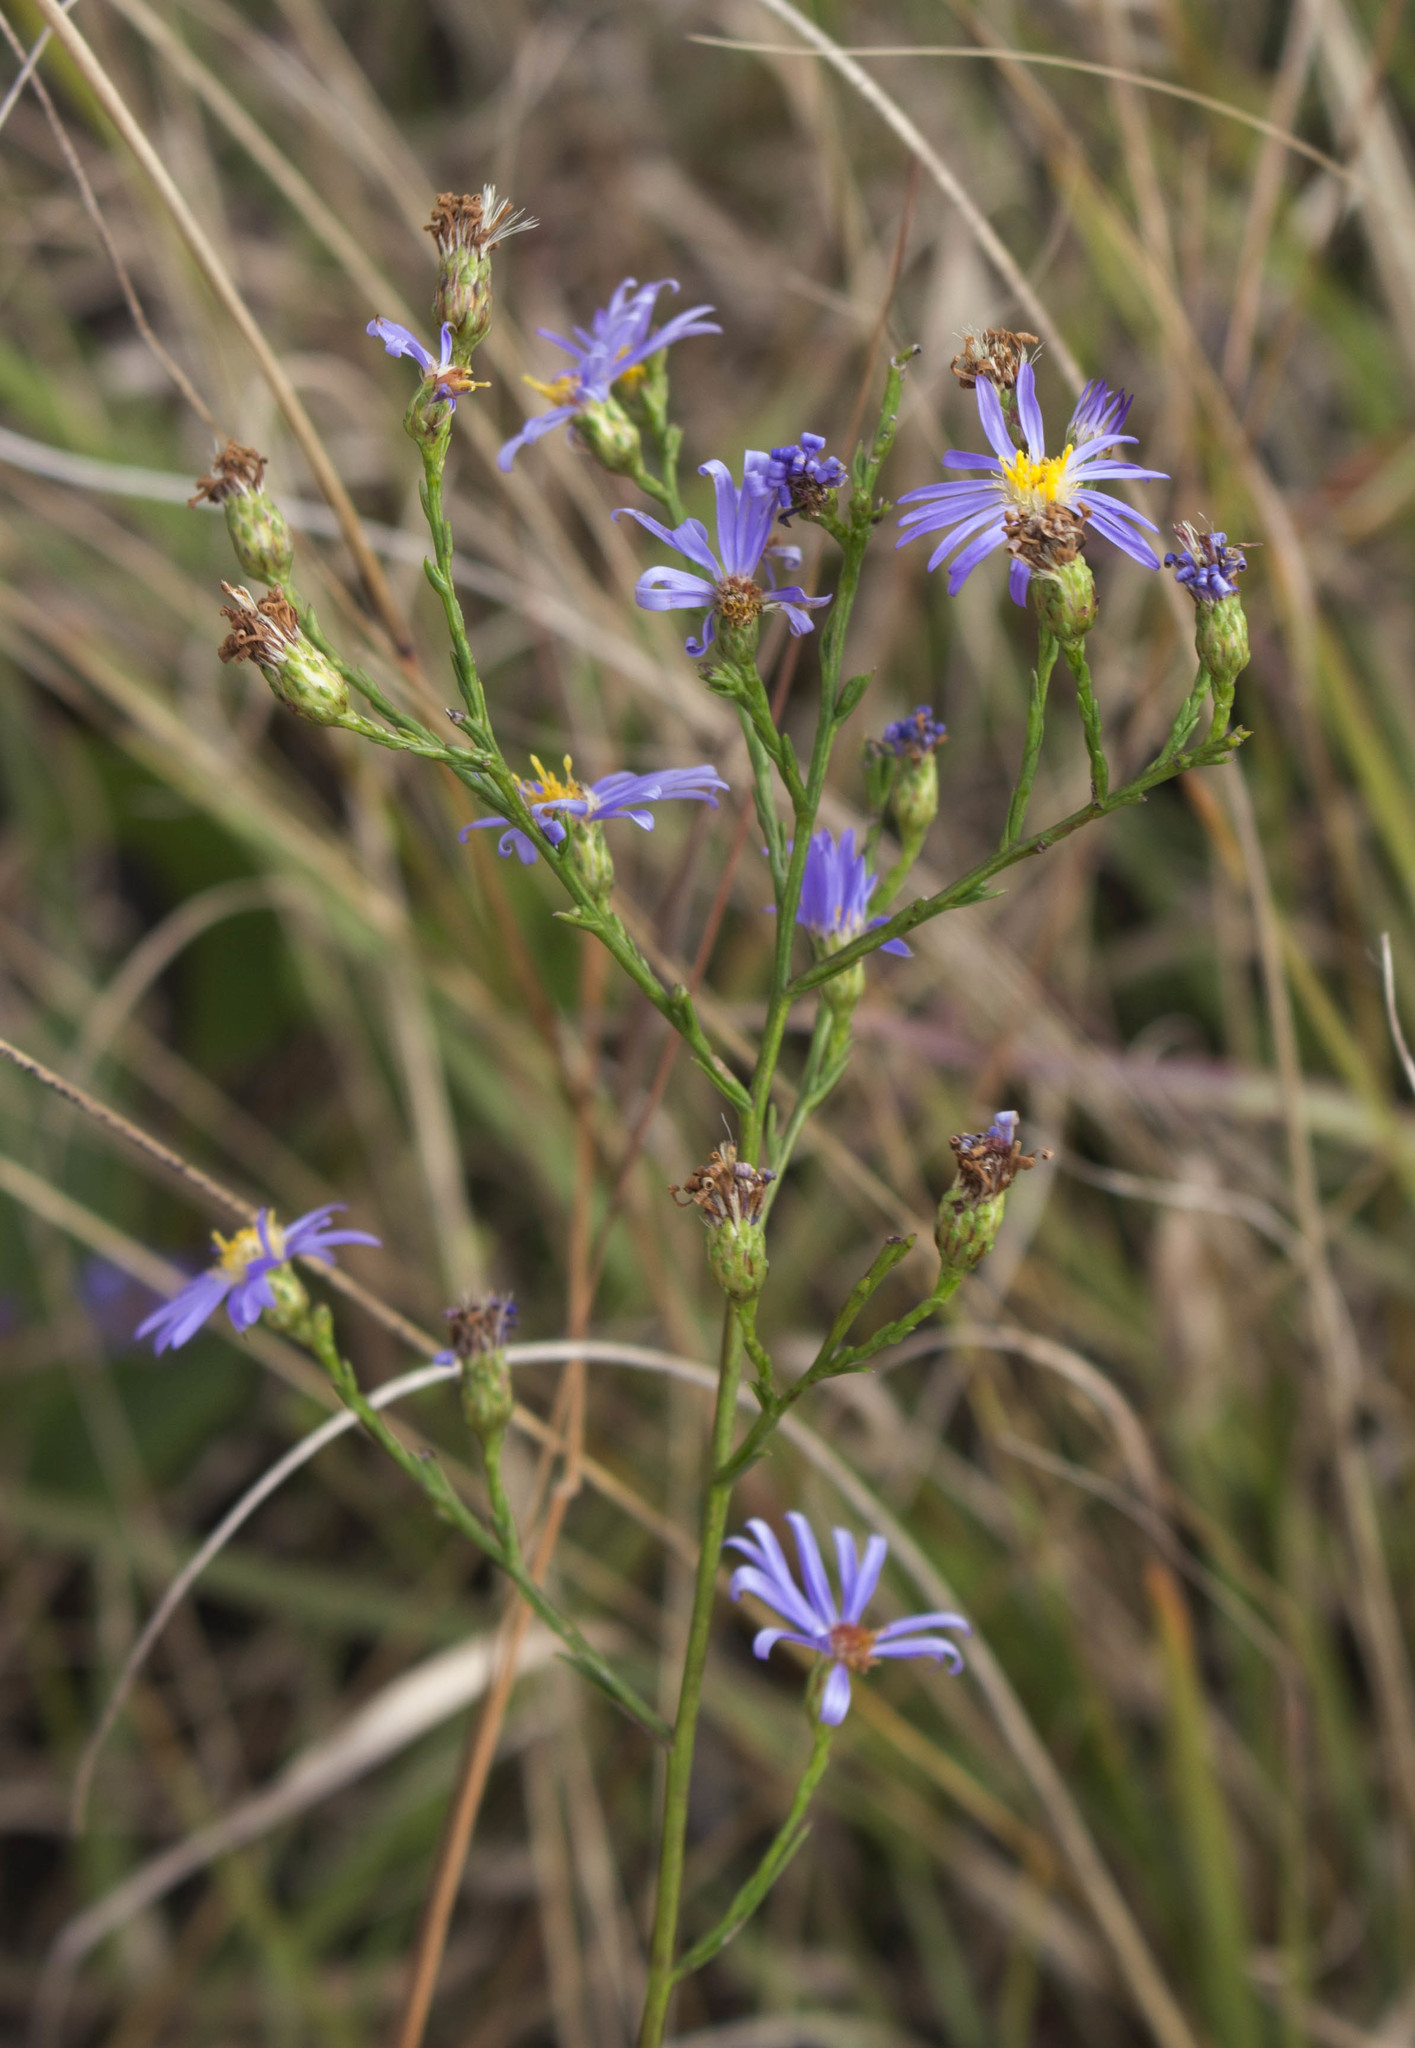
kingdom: Plantae
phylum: Tracheophyta
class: Magnoliopsida
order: Asterales
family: Asteraceae
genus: Symphyotrichum
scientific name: Symphyotrichum oolentangiense
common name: Azure aster
